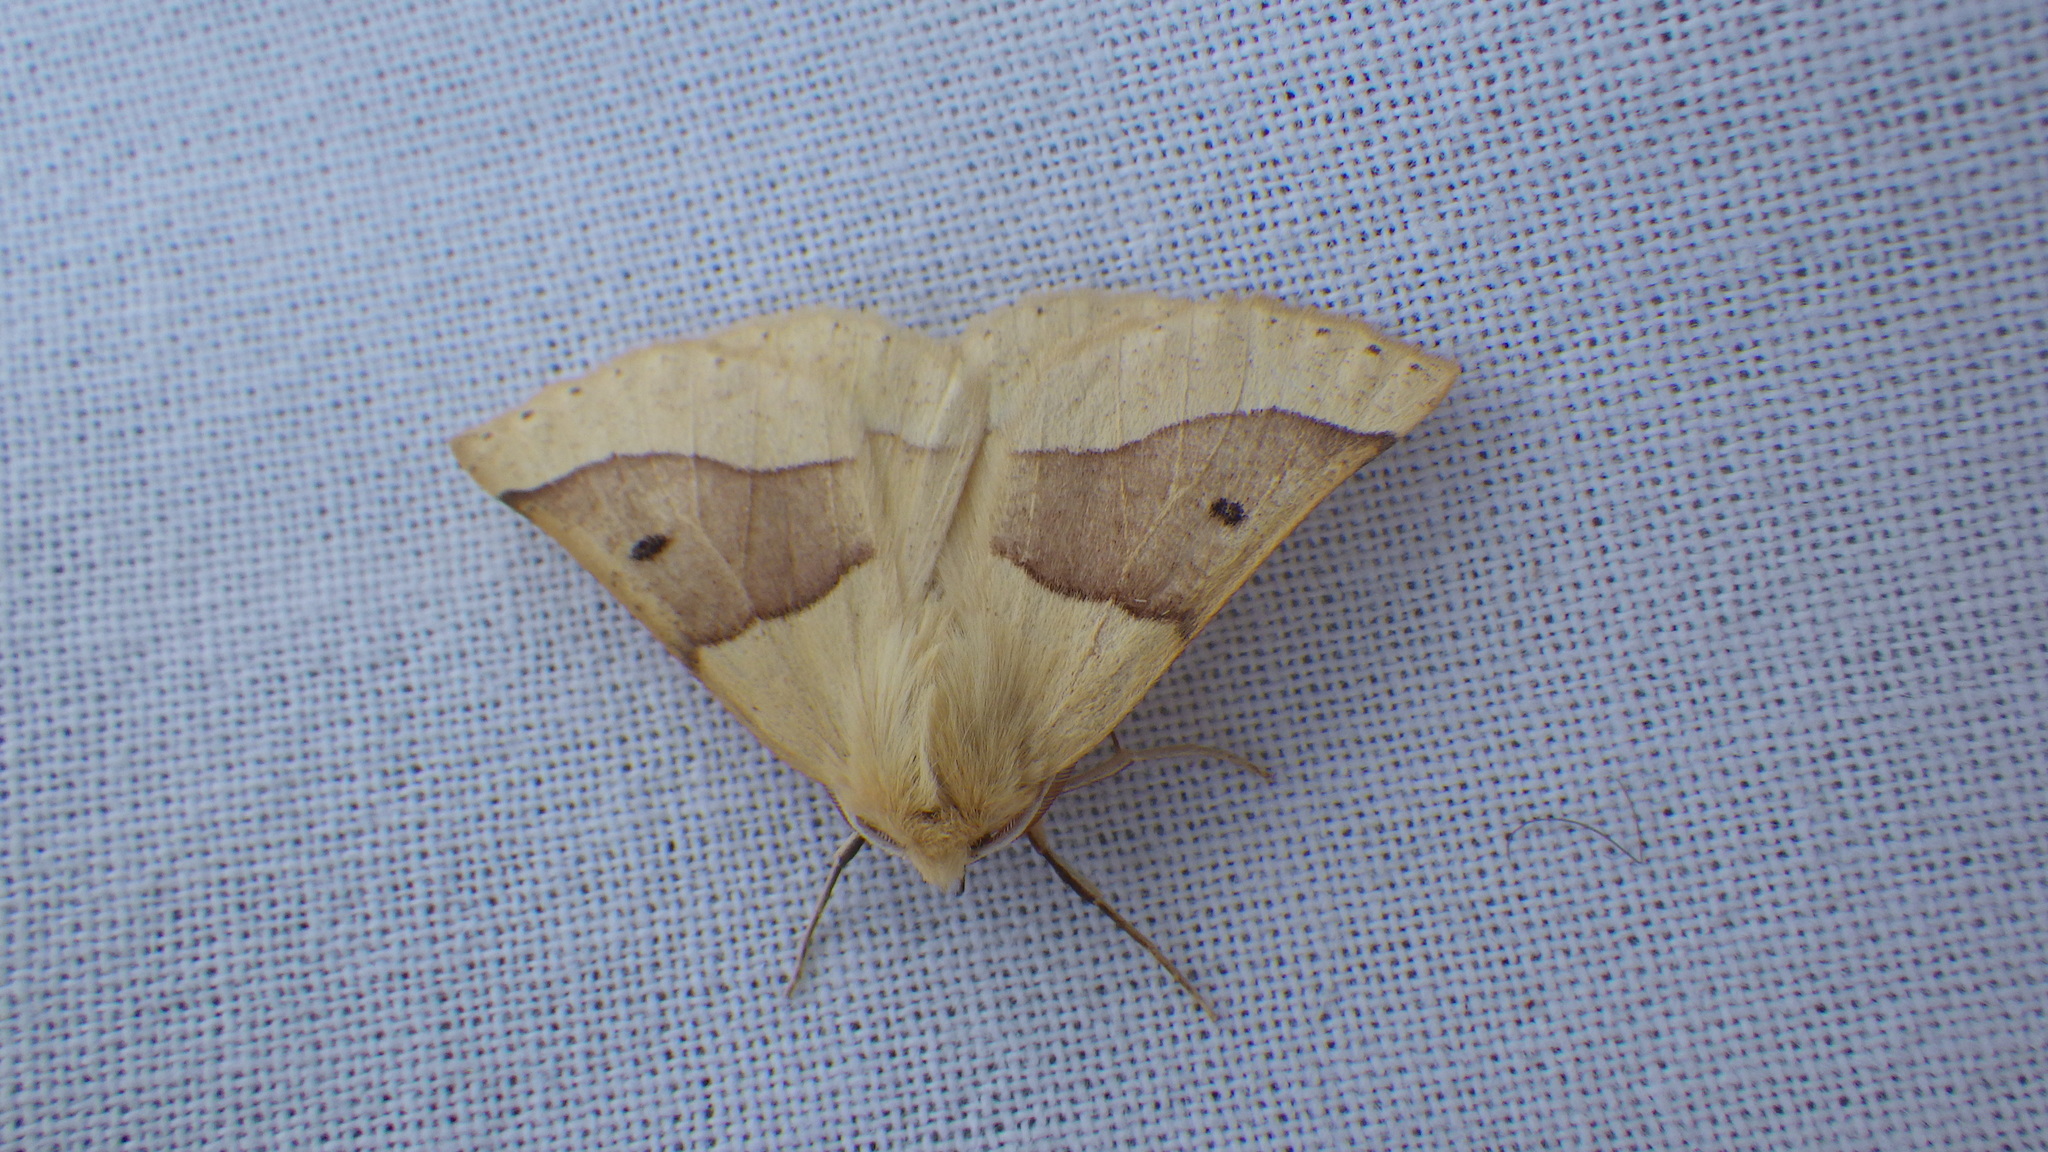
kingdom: Animalia
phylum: Arthropoda
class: Insecta
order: Lepidoptera
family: Geometridae
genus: Crocallis
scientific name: Crocallis elinguaria
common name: Scalloped oak
